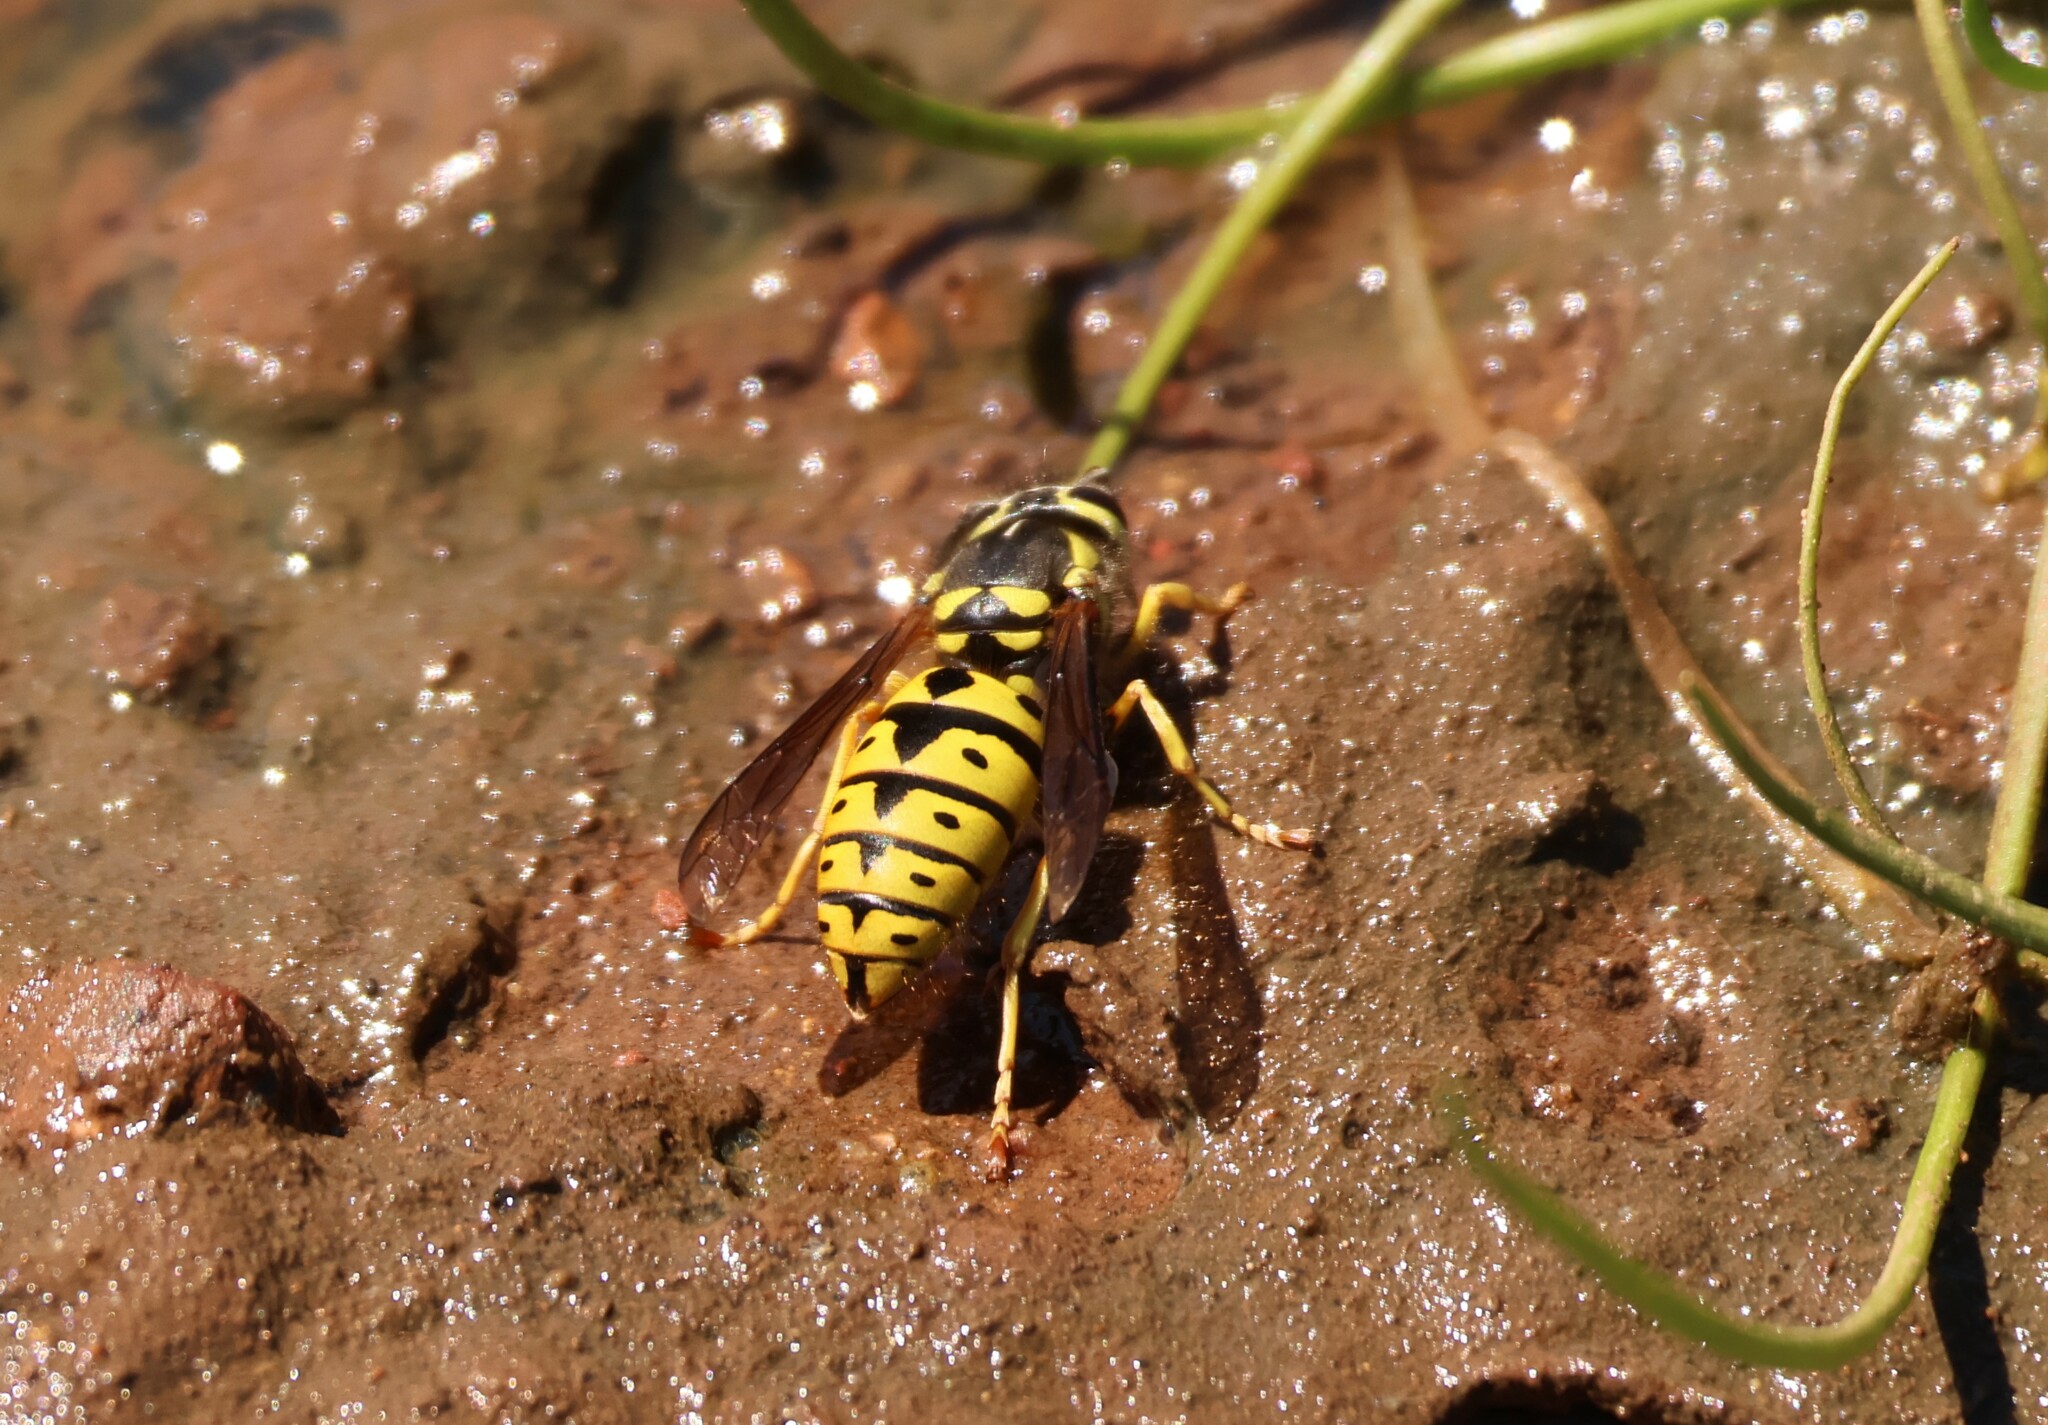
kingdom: Animalia
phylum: Arthropoda
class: Insecta
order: Hymenoptera
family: Vespidae
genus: Vespula
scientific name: Vespula pensylvanica
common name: Western yellowjacket
